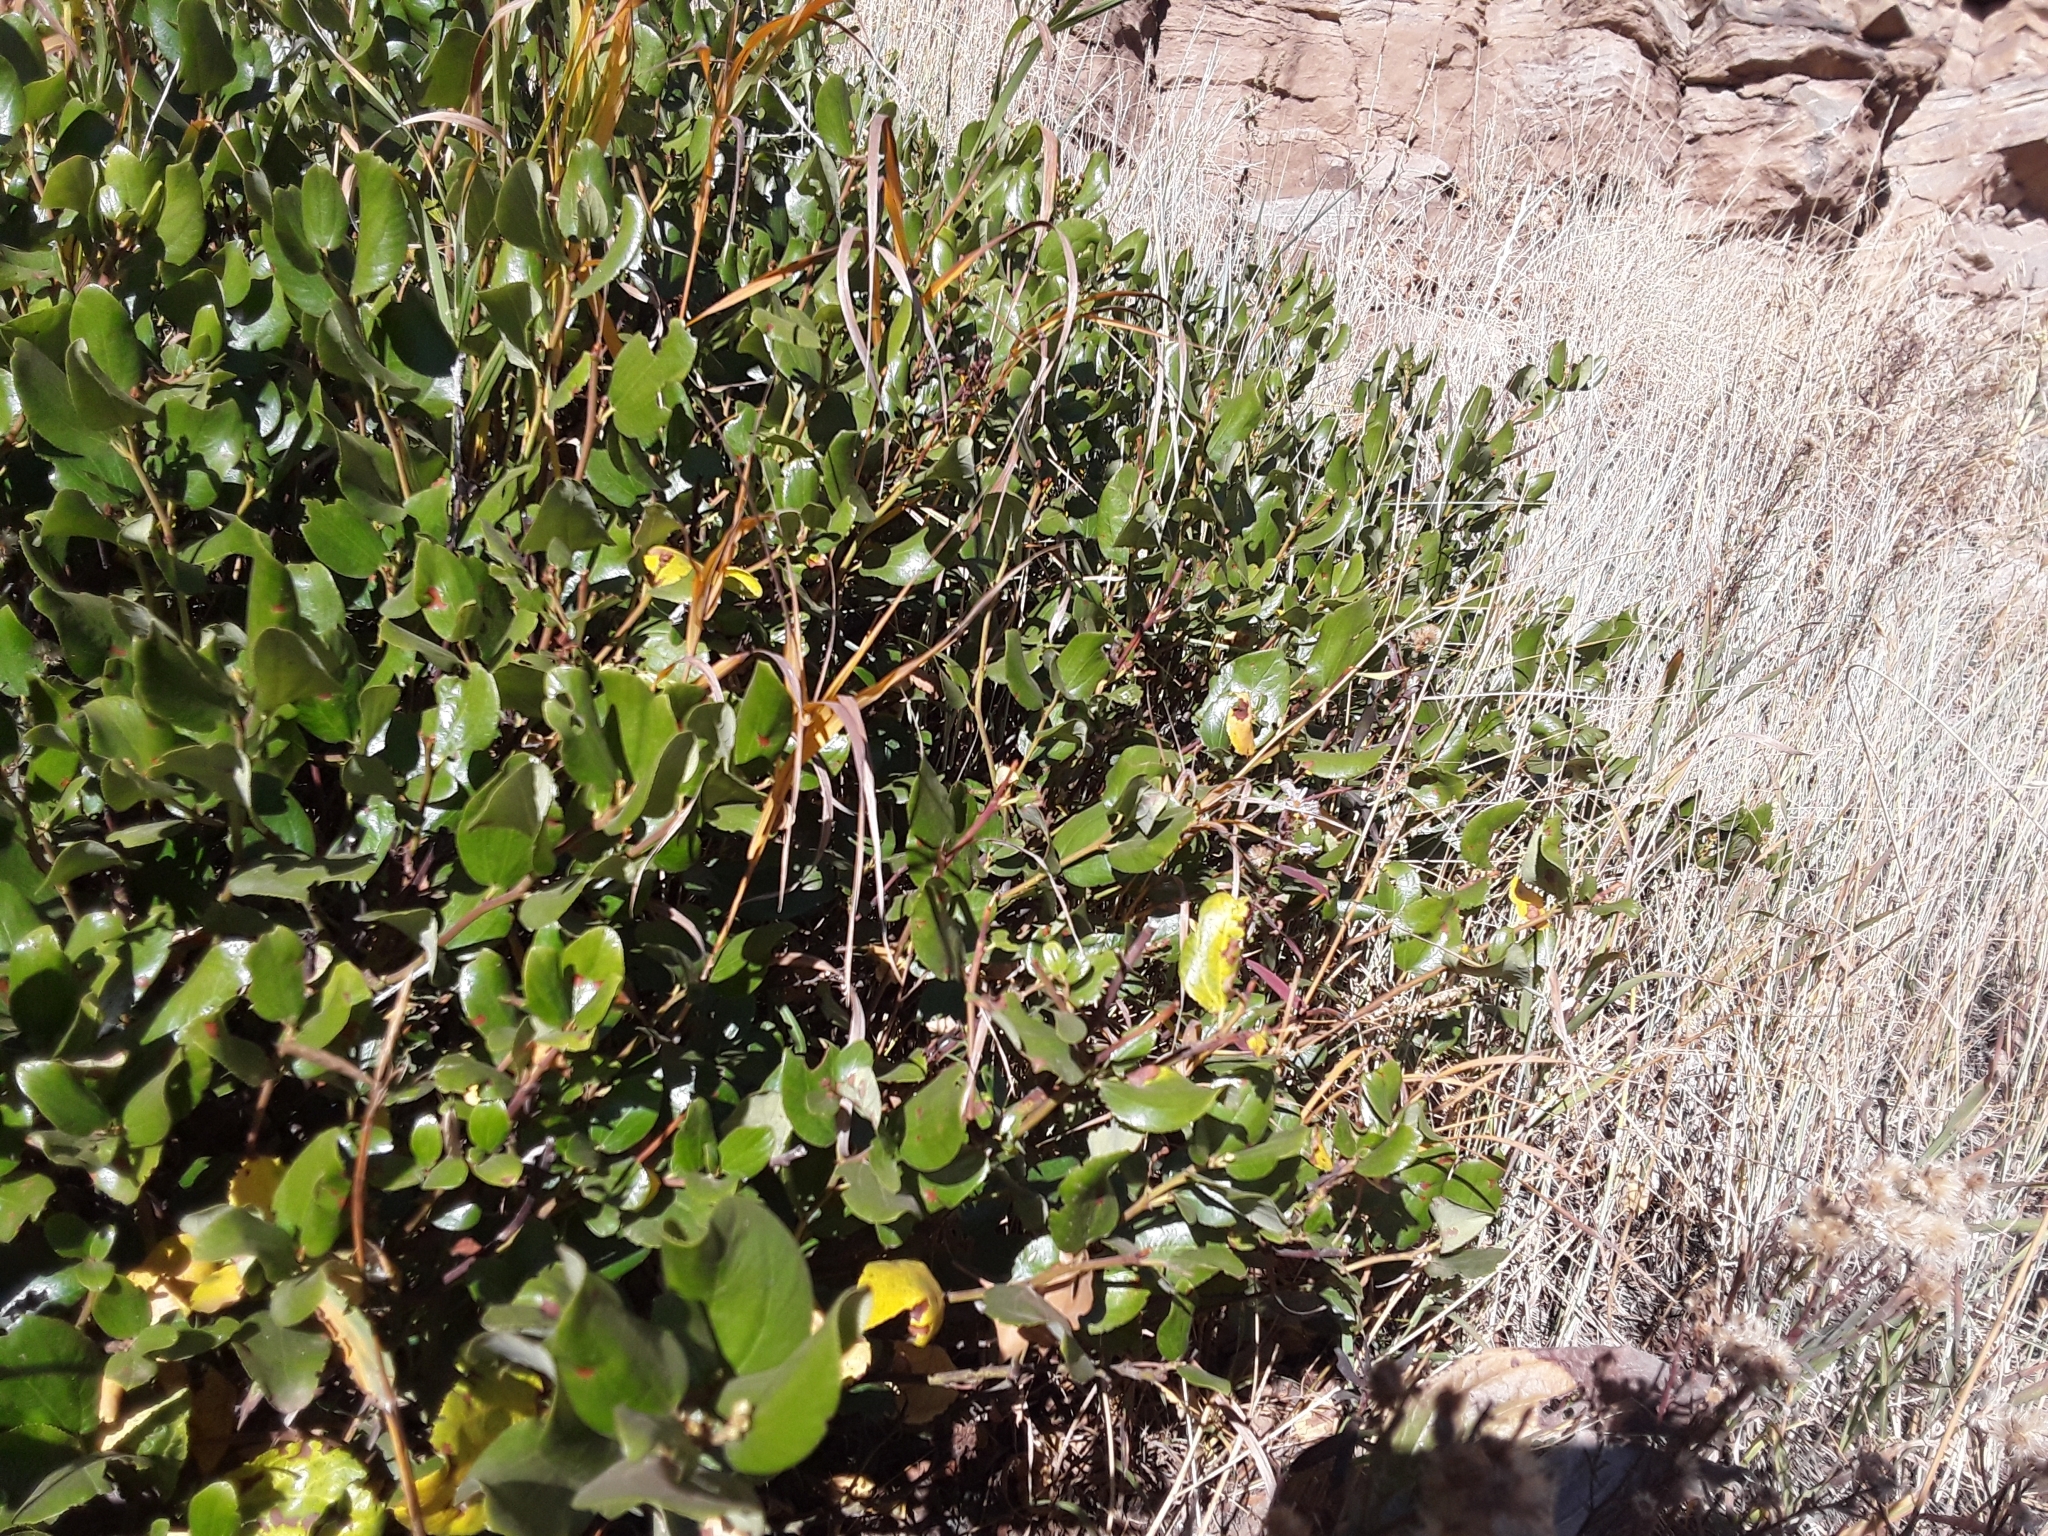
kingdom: Plantae
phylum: Tracheophyta
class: Magnoliopsida
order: Rosales
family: Rhamnaceae
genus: Ceanothus
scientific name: Ceanothus velutinus
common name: Snowbrush
